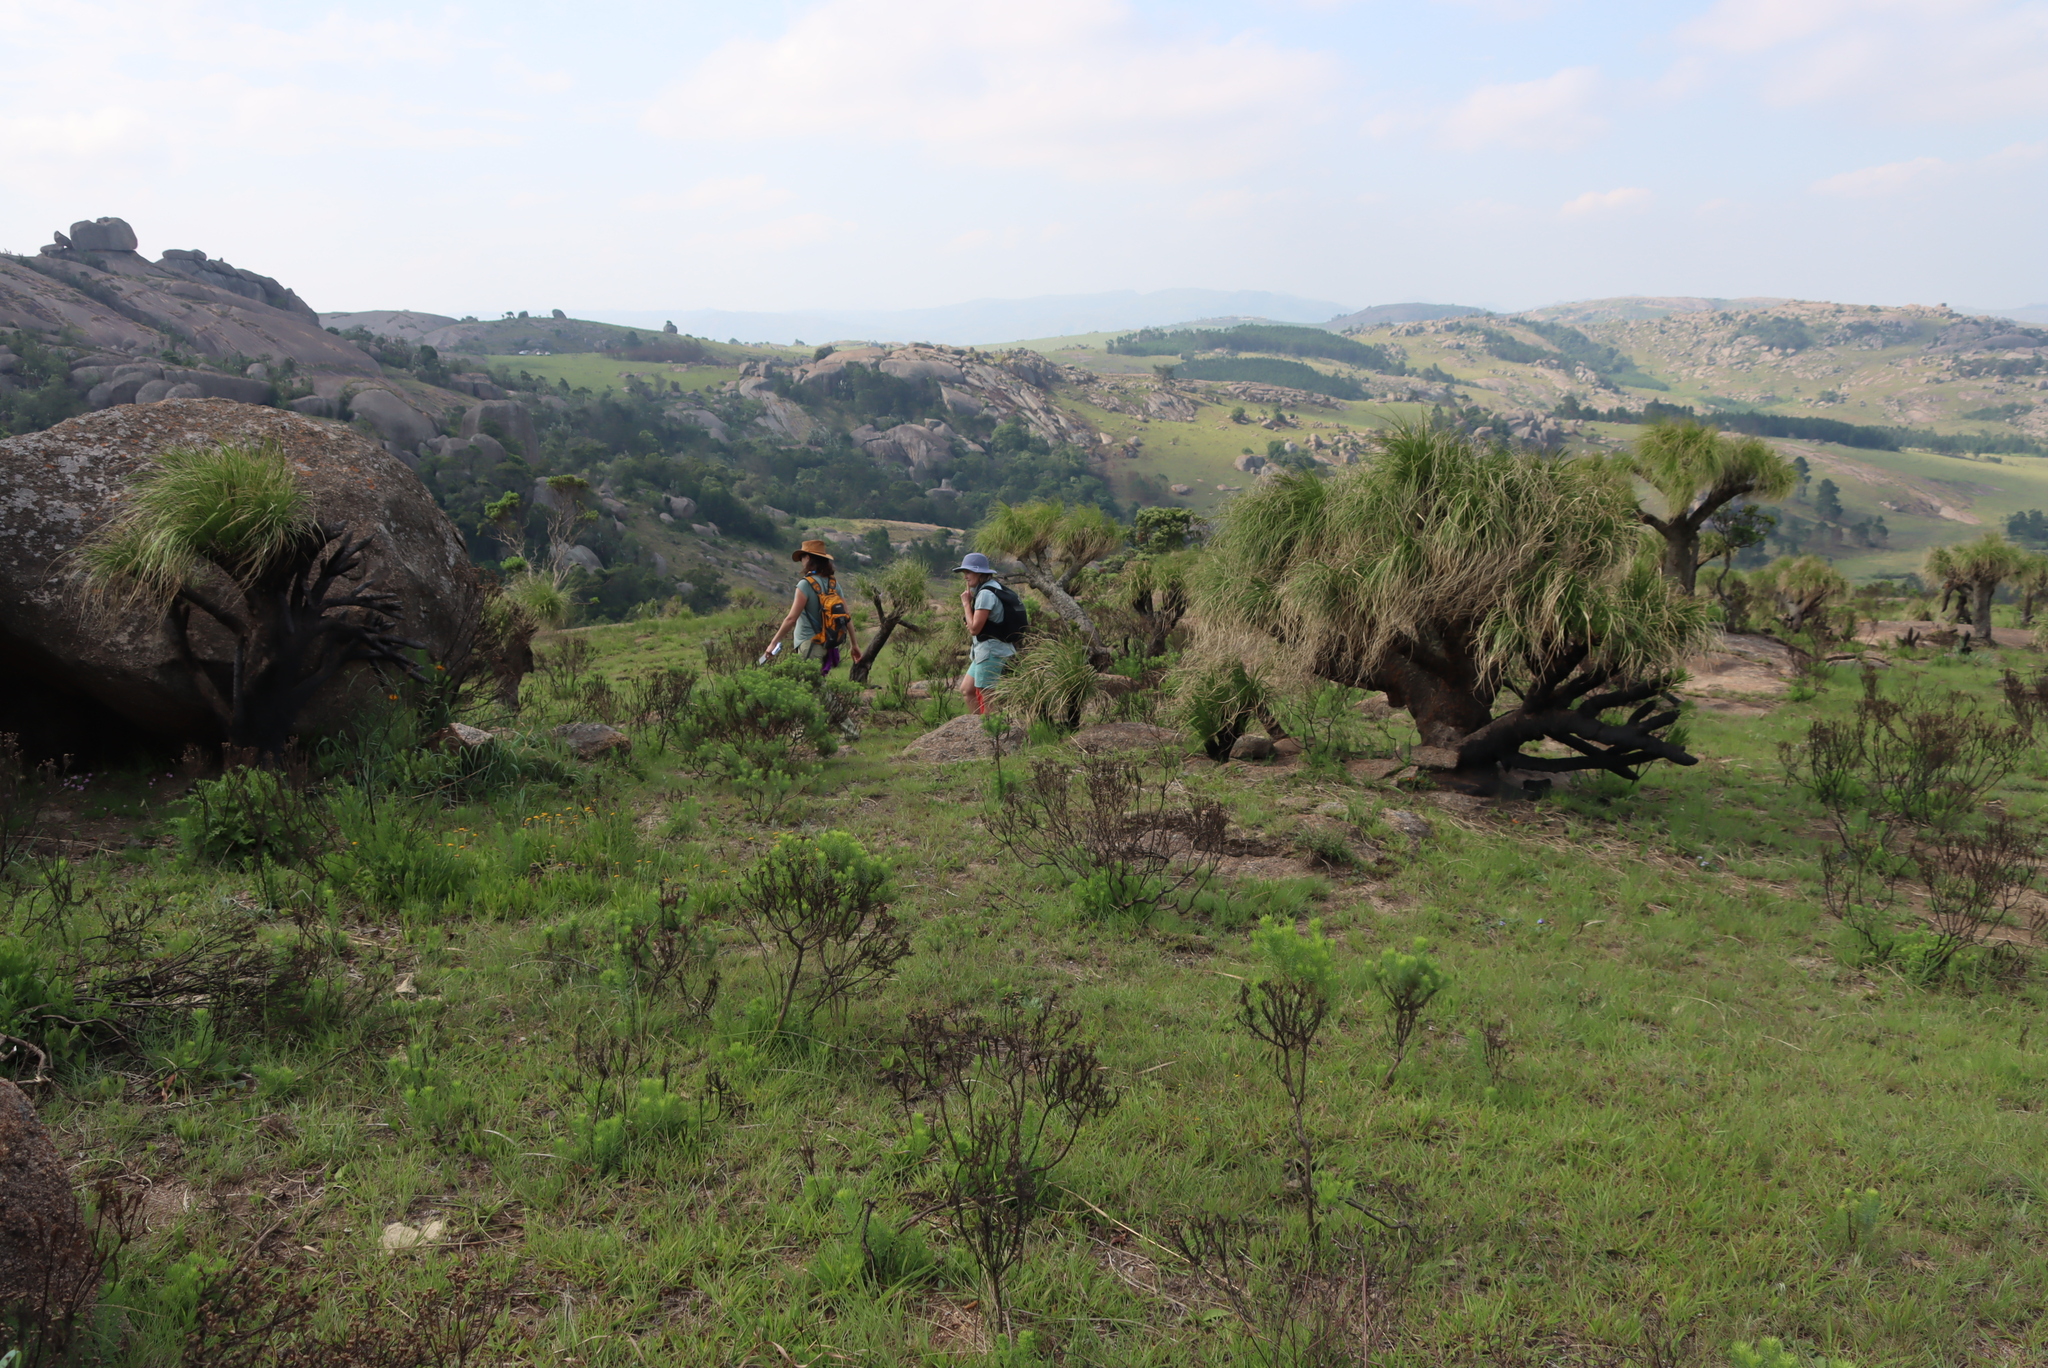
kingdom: Plantae
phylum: Tracheophyta
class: Liliopsida
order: Pandanales
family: Velloziaceae
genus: Xerophyta
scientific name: Xerophyta retinervis
